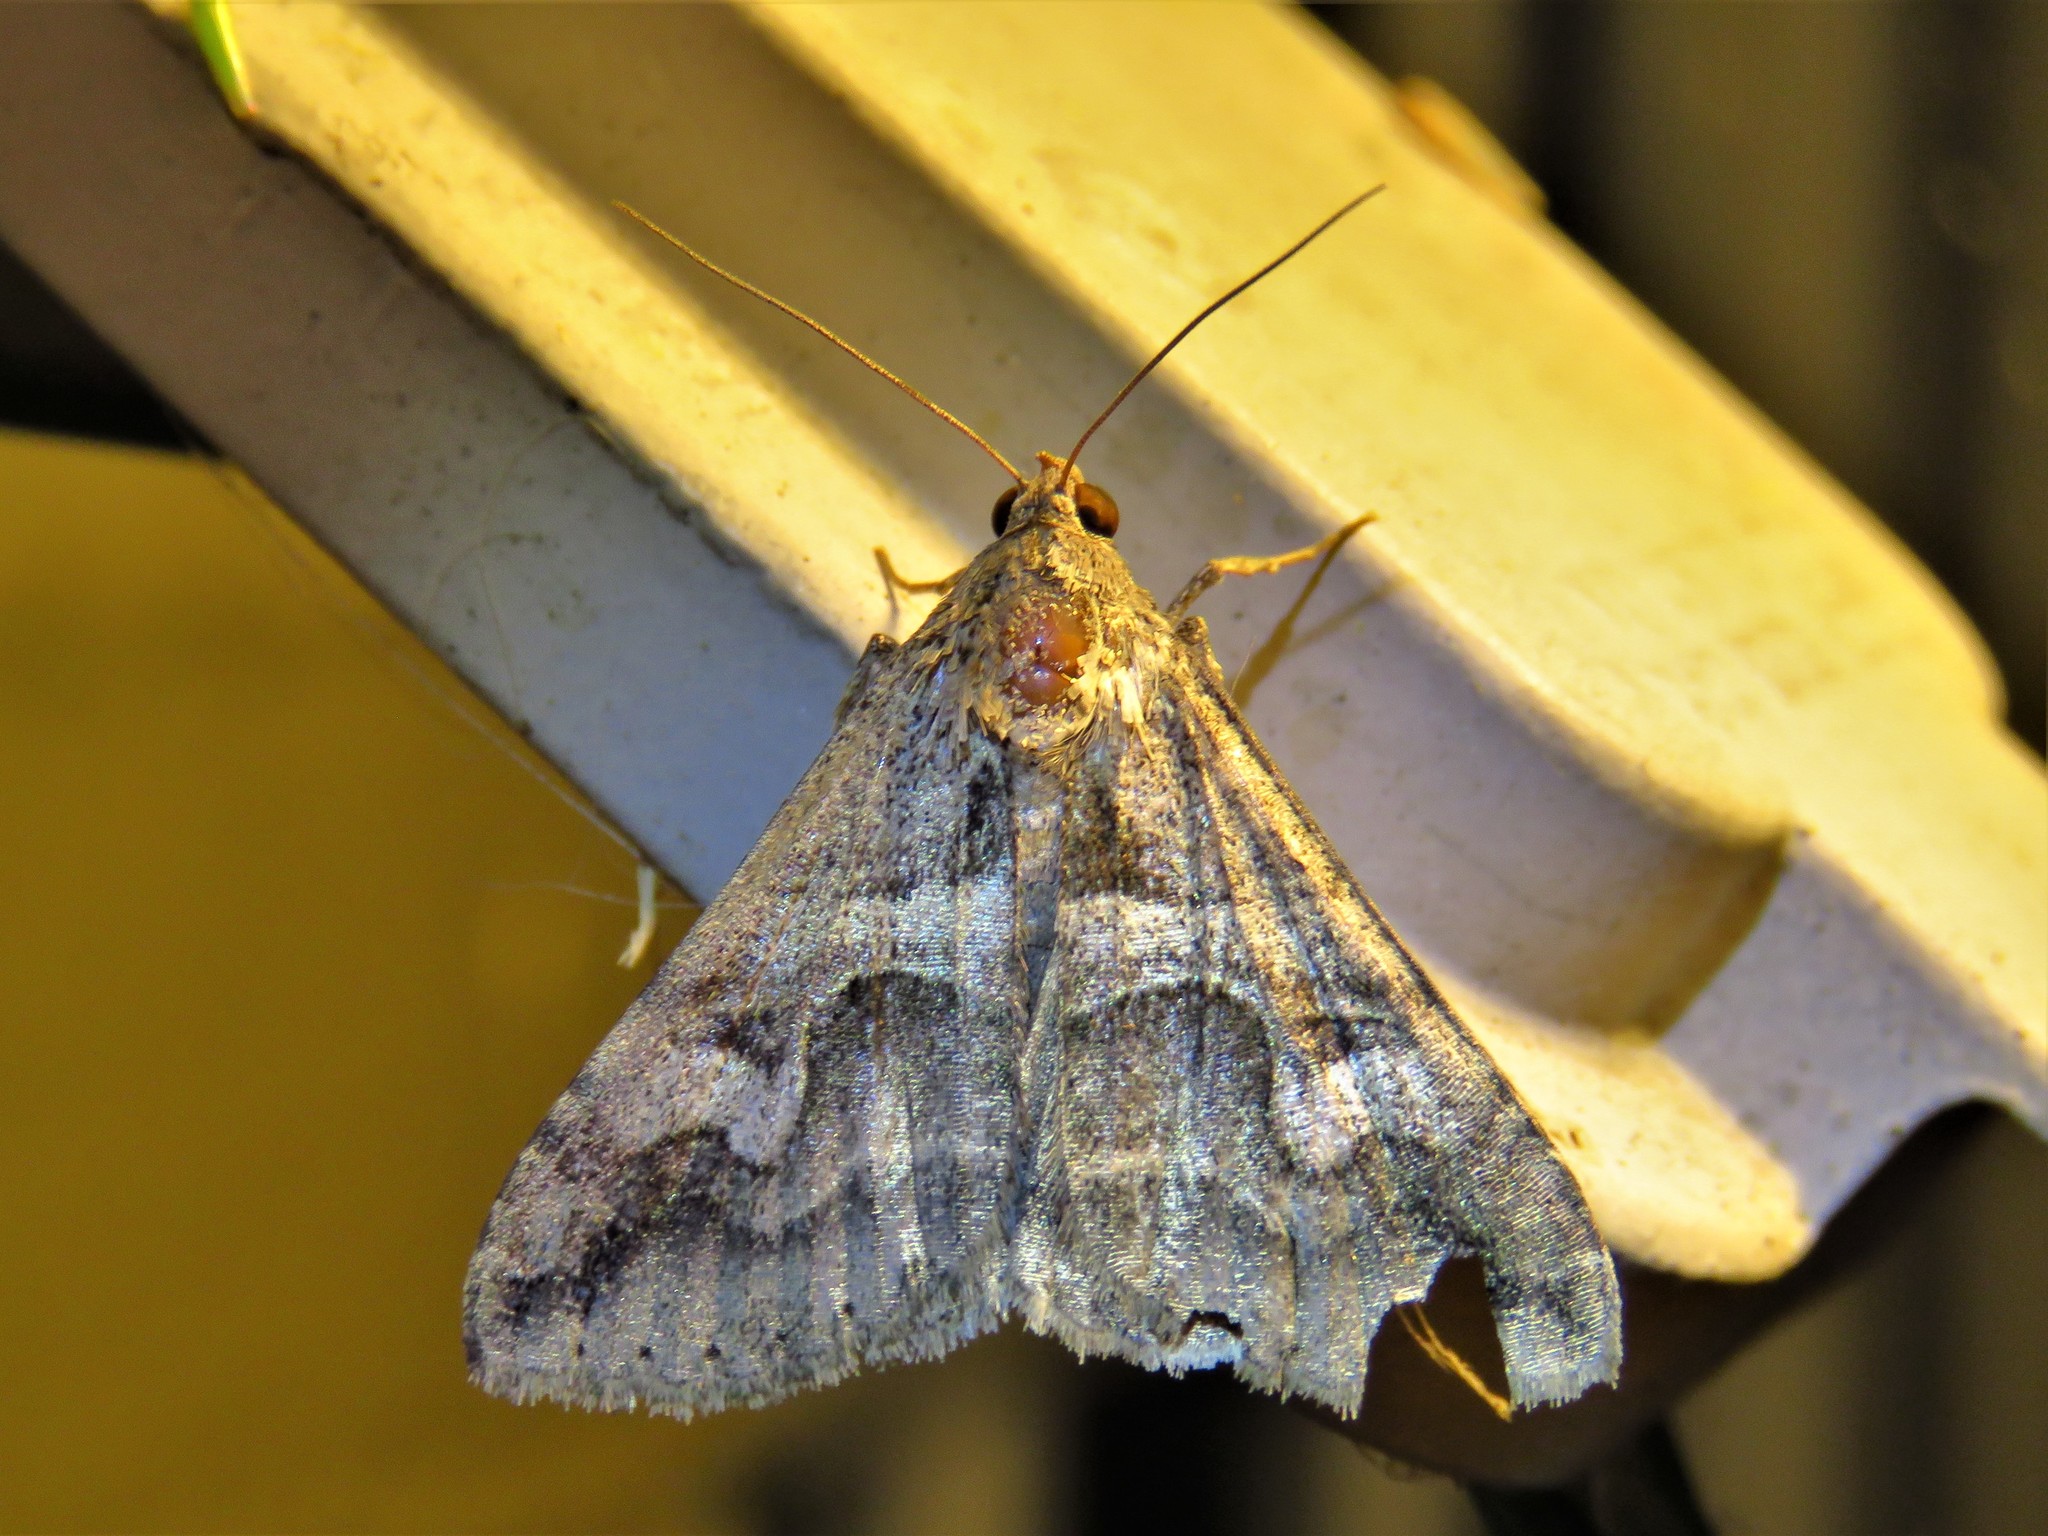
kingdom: Animalia
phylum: Arthropoda
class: Insecta
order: Lepidoptera
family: Erebidae
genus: Melipotis
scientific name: Melipotis cellaris
